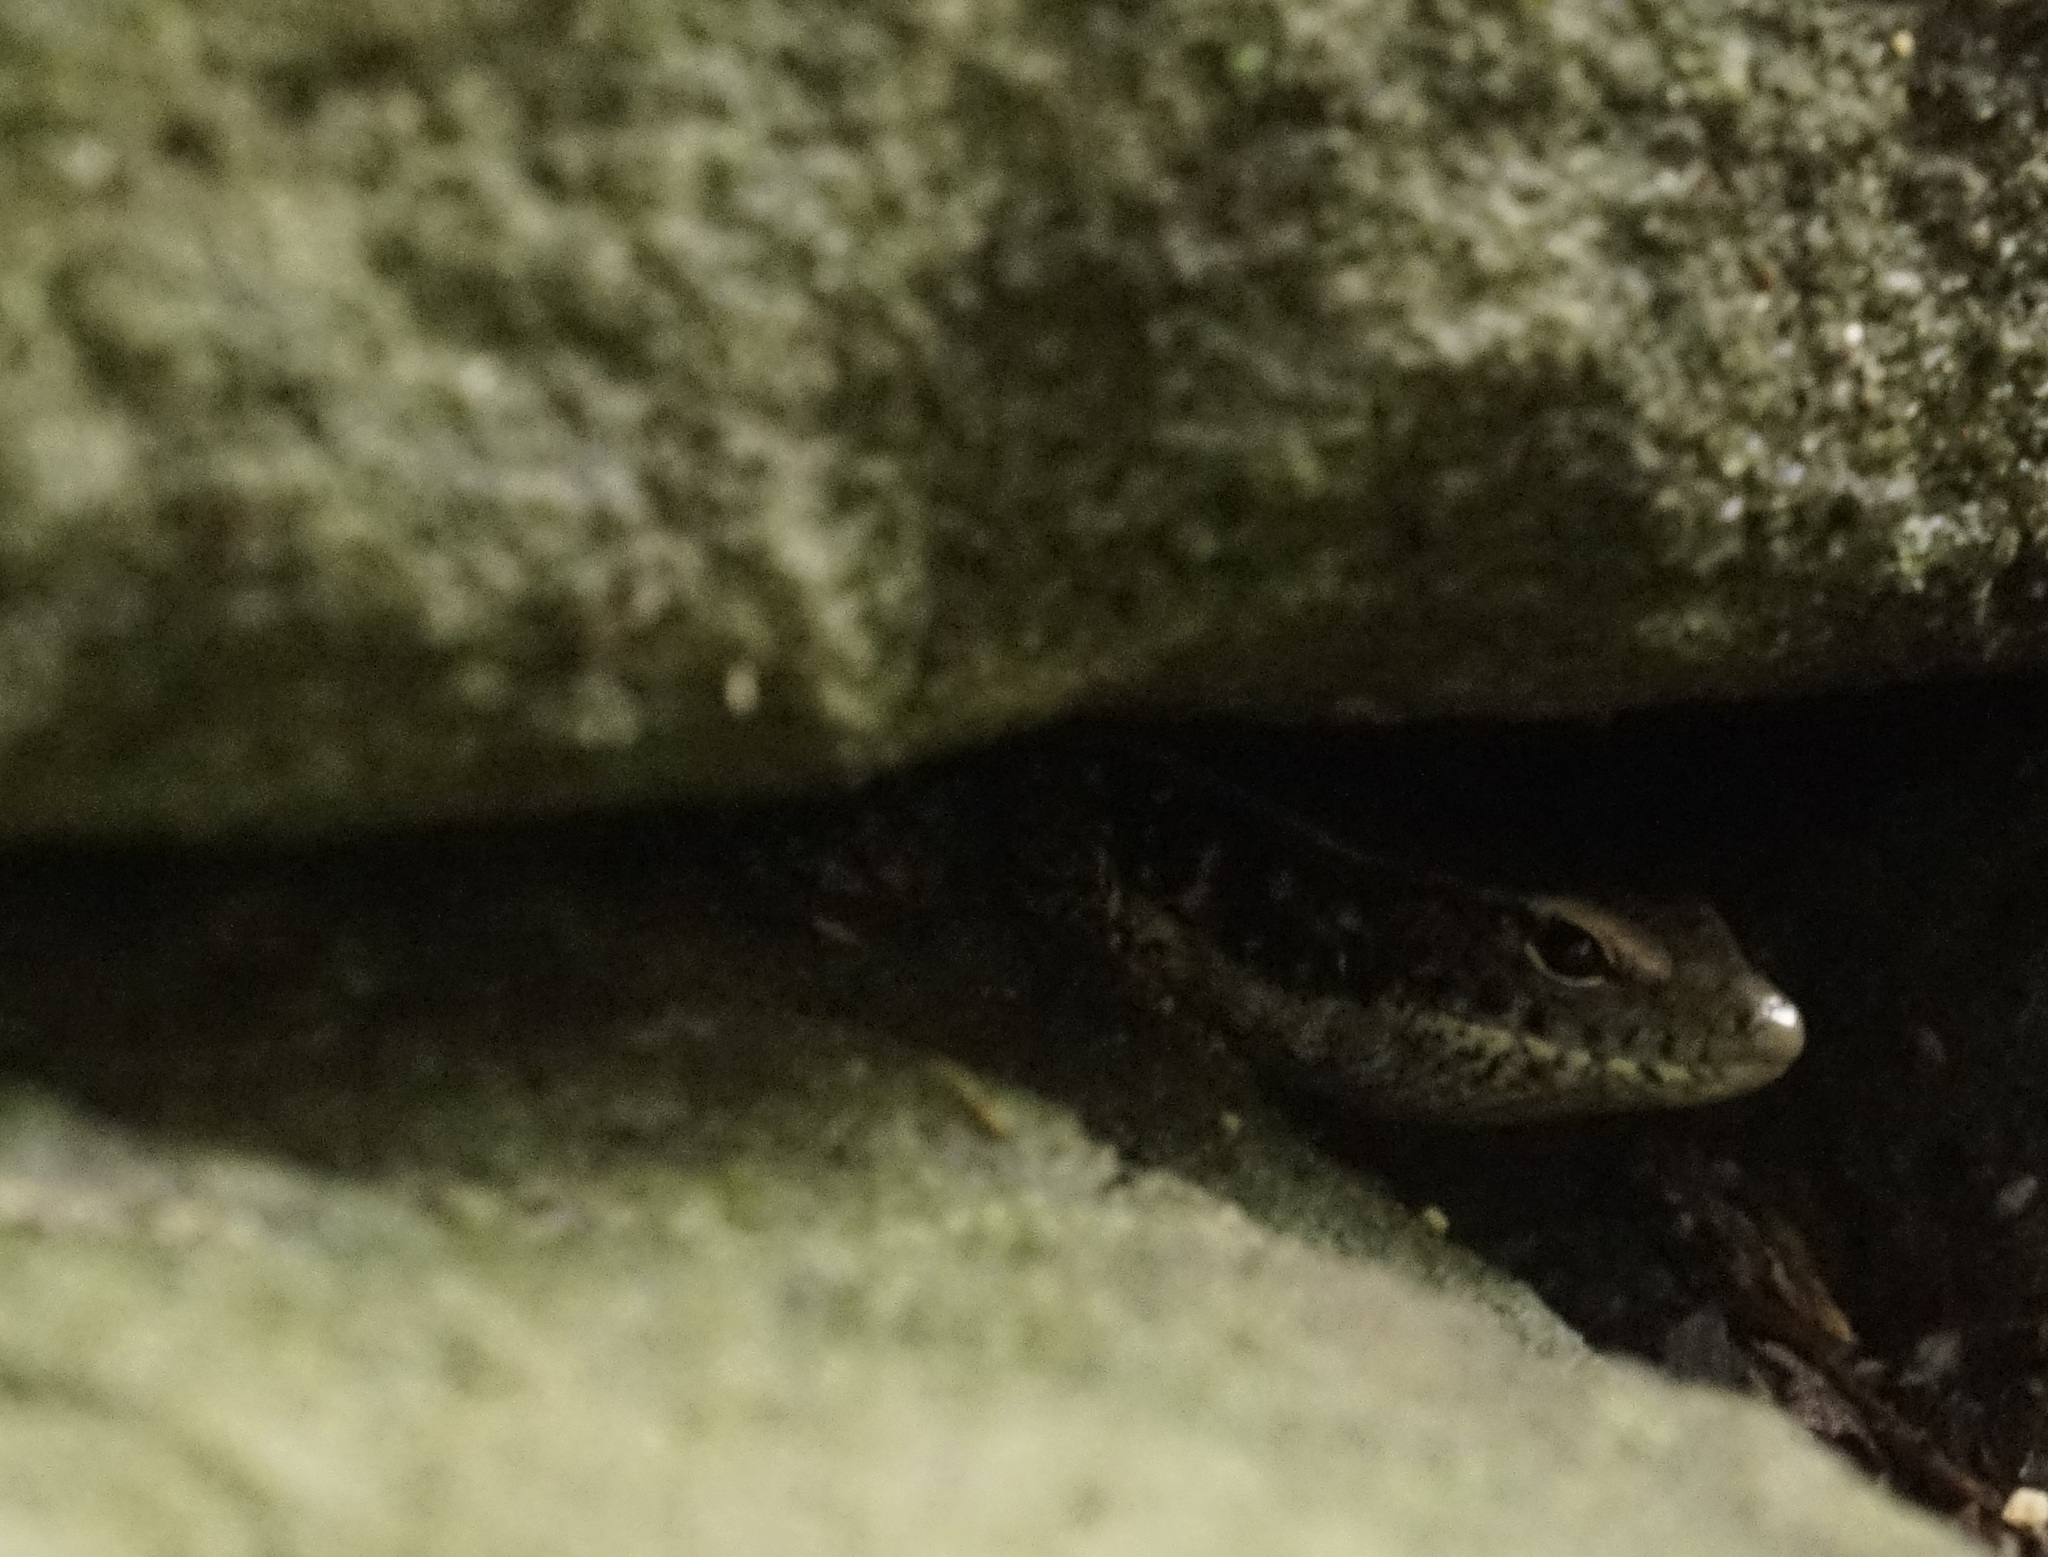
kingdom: Animalia
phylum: Chordata
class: Squamata
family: Scincidae
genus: Eulamprus
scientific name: Eulamprus quoyii
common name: Eastern water skink
